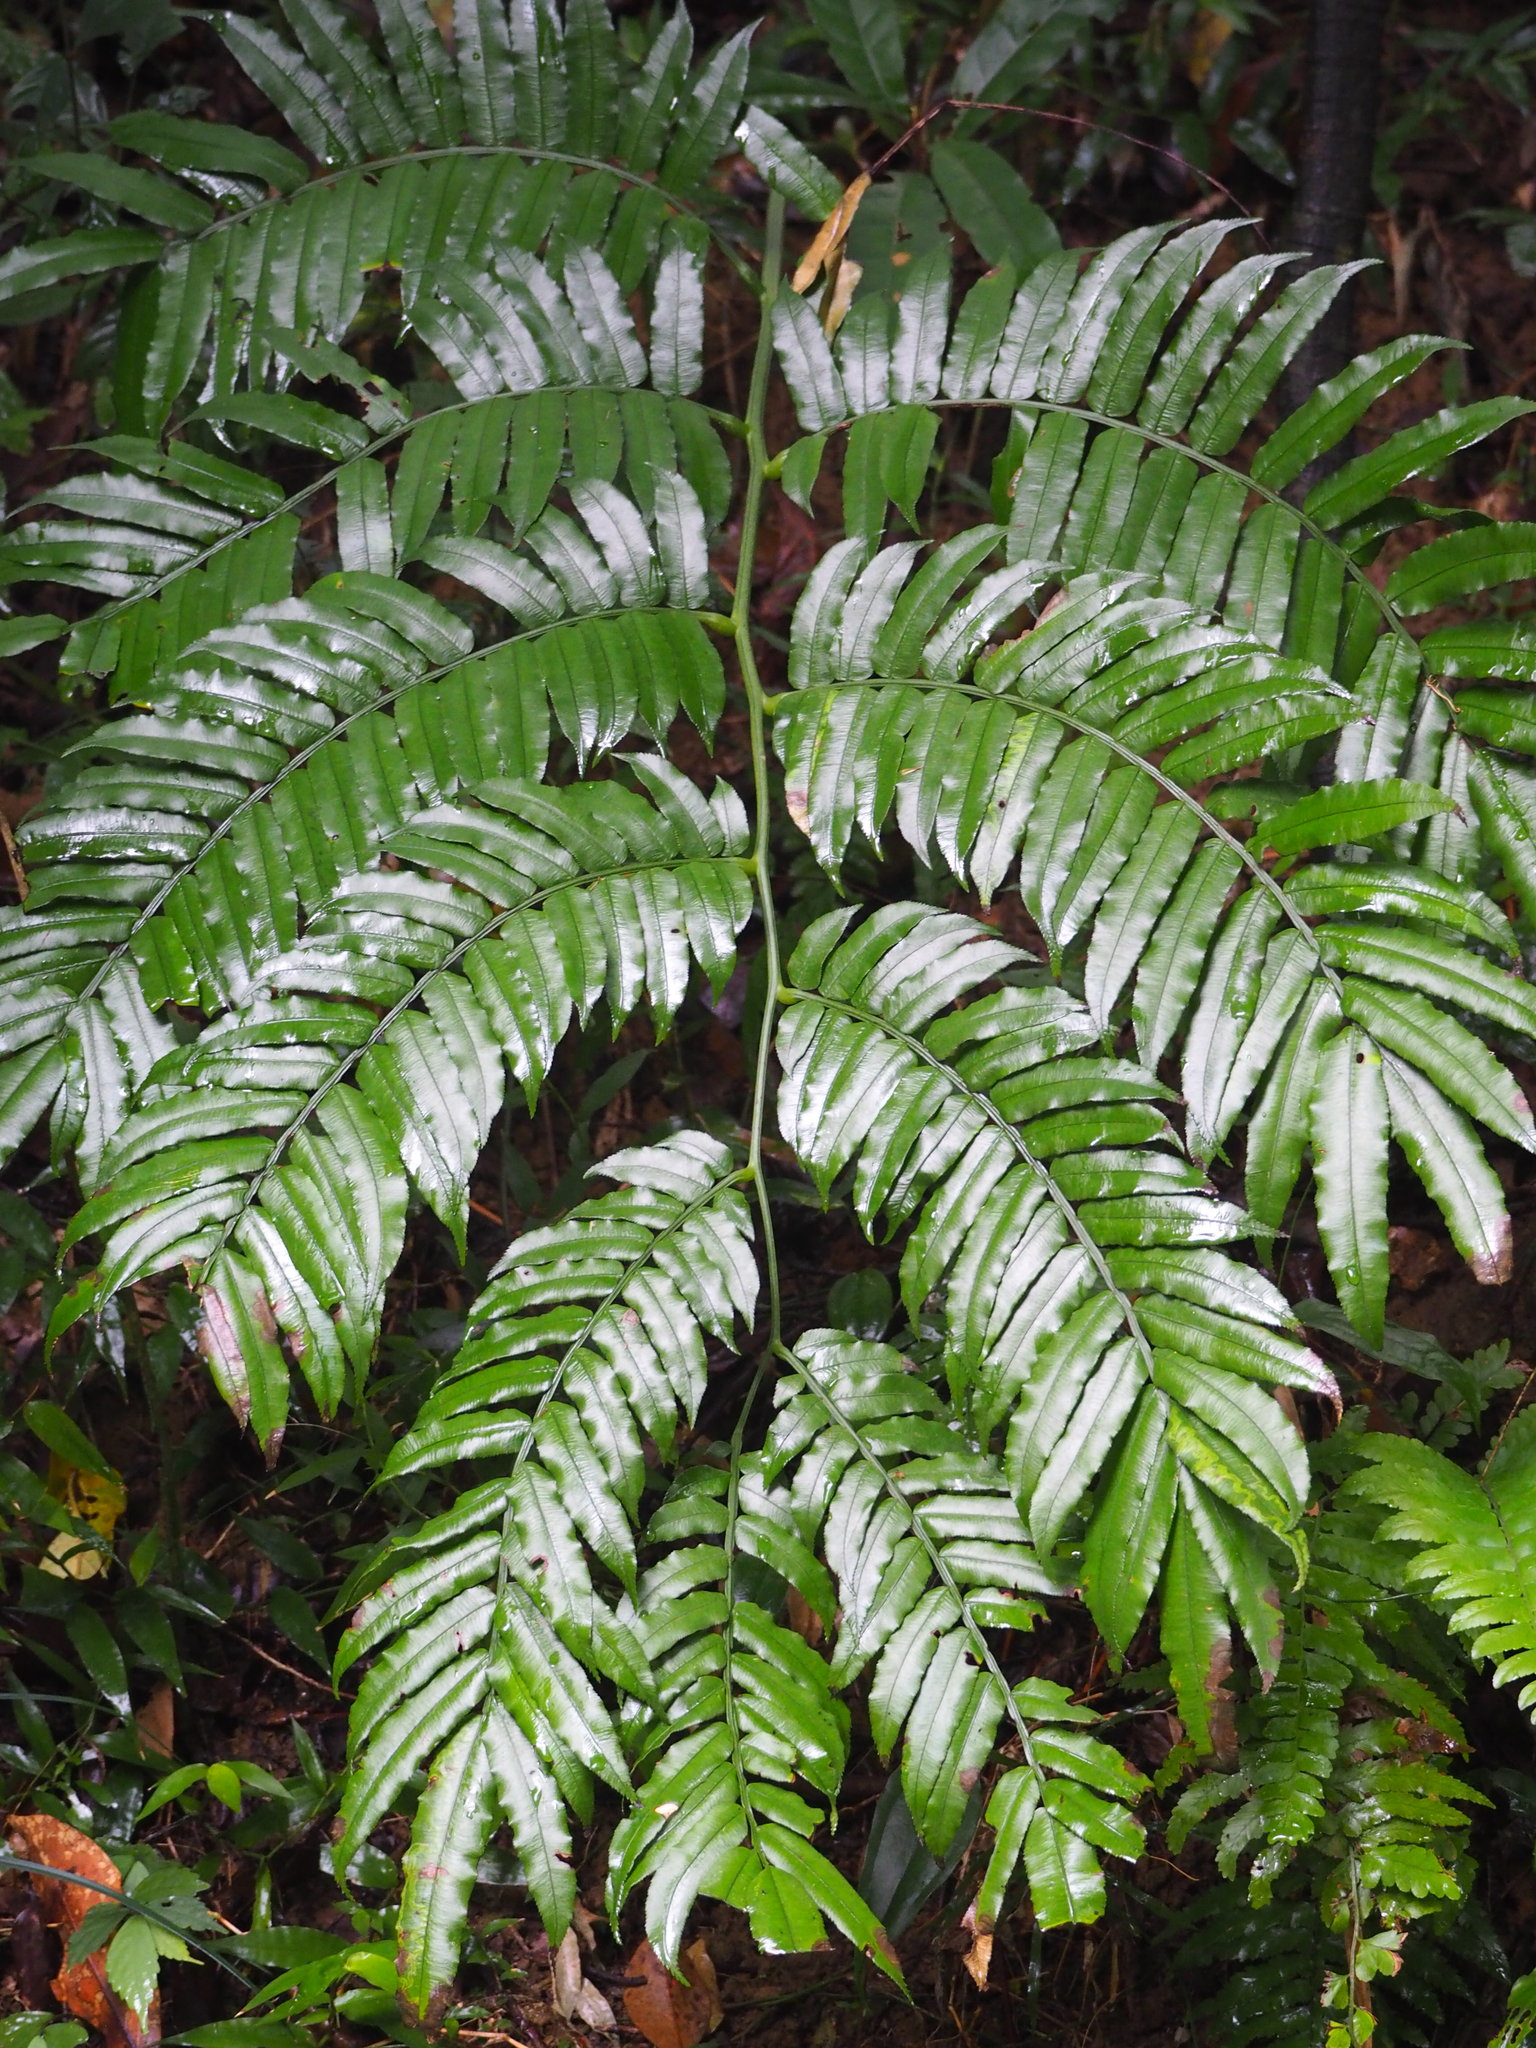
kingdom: Plantae
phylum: Tracheophyta
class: Polypodiopsida
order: Marattiales
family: Marattiaceae
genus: Angiopteris
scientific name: Angiopteris lygodiifolia
